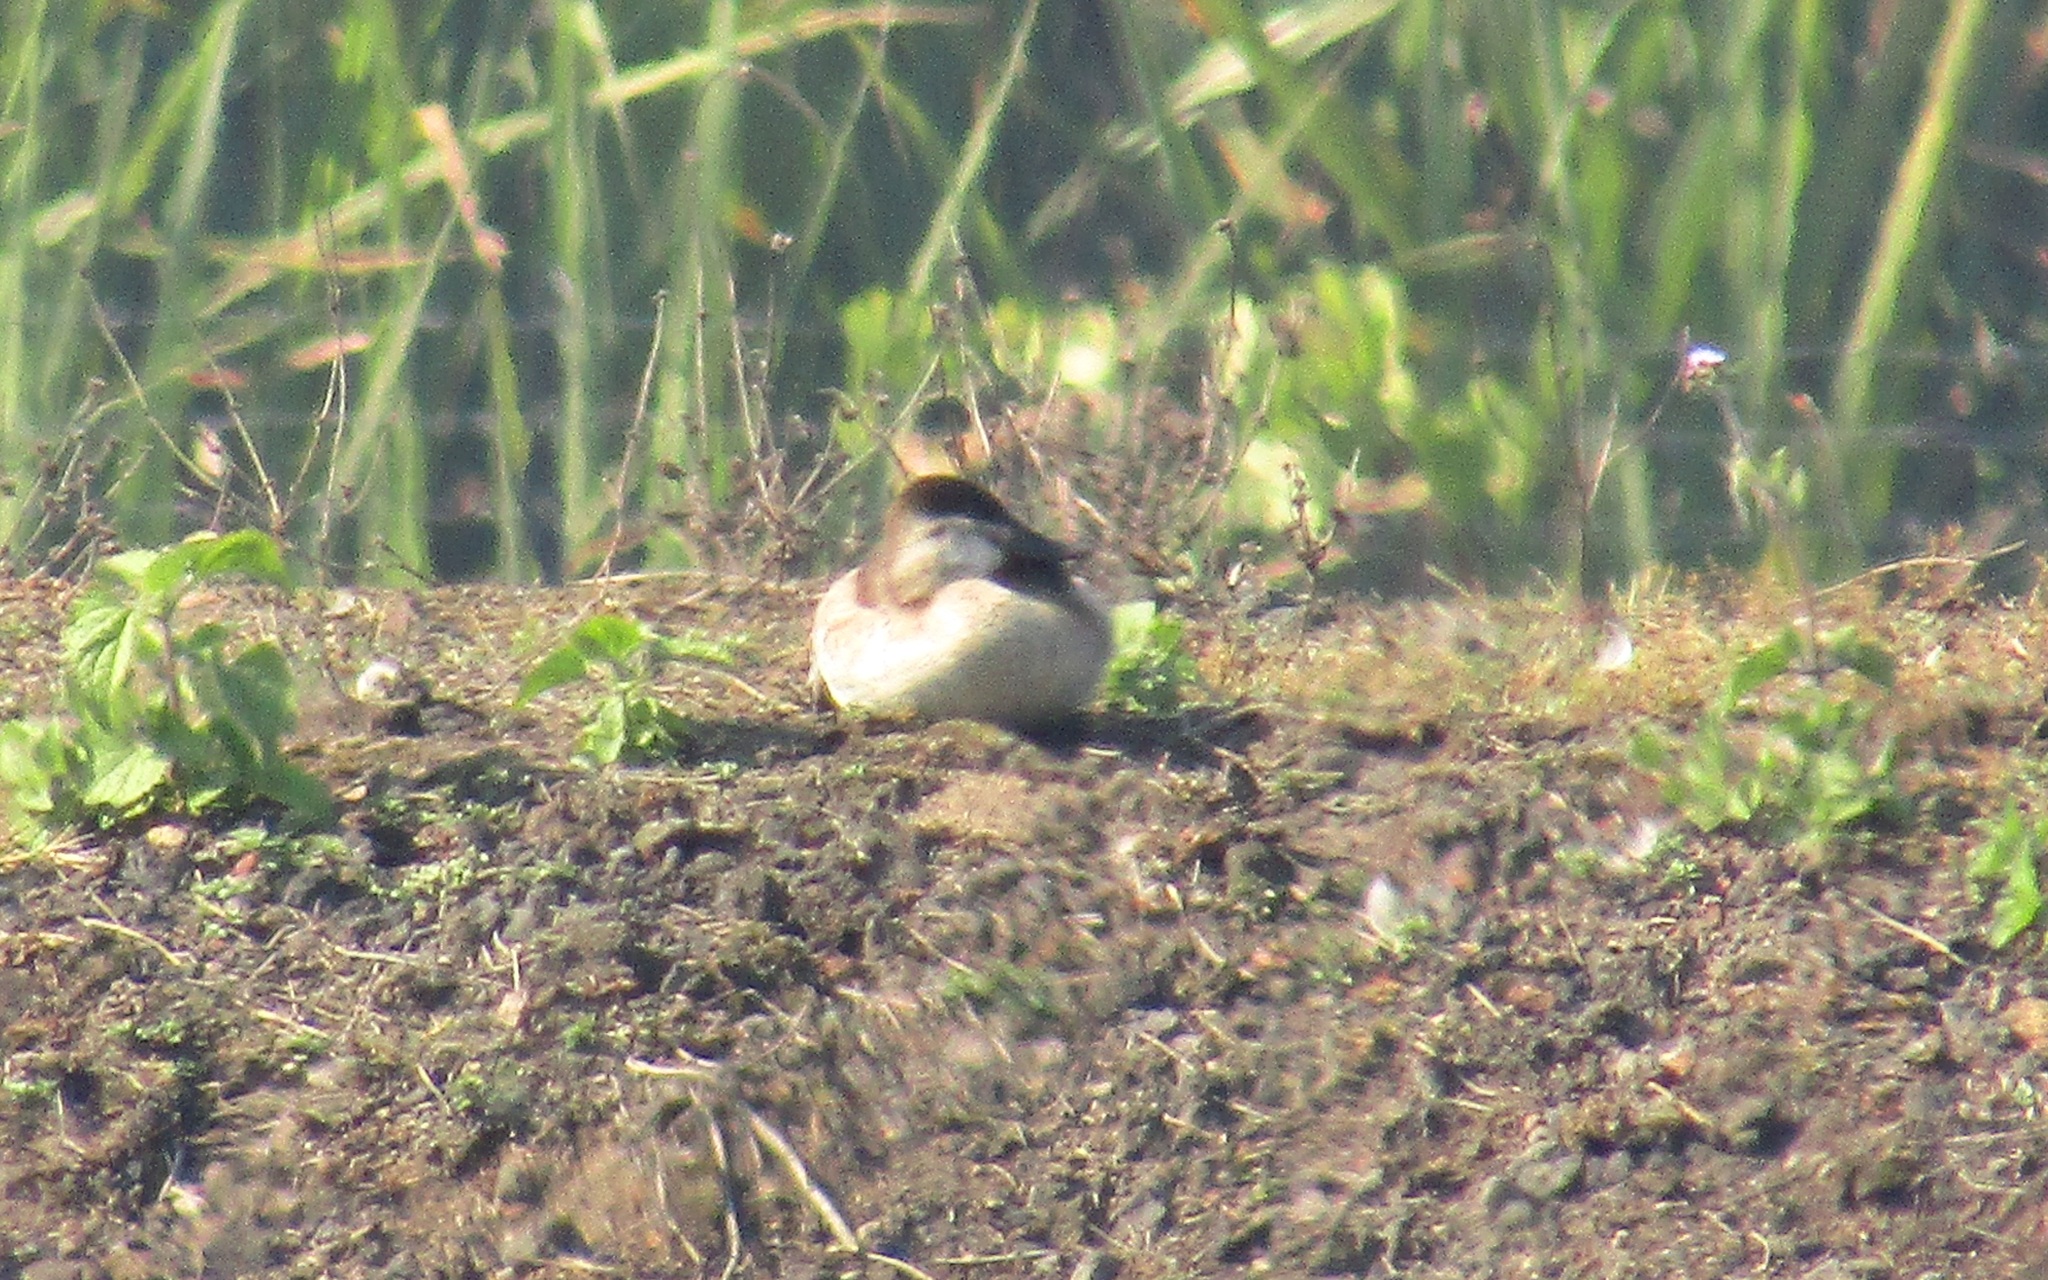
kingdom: Animalia
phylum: Chordata
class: Aves
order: Anseriformes
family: Anatidae
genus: Oxyura
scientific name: Oxyura jamaicensis
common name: Ruddy duck
